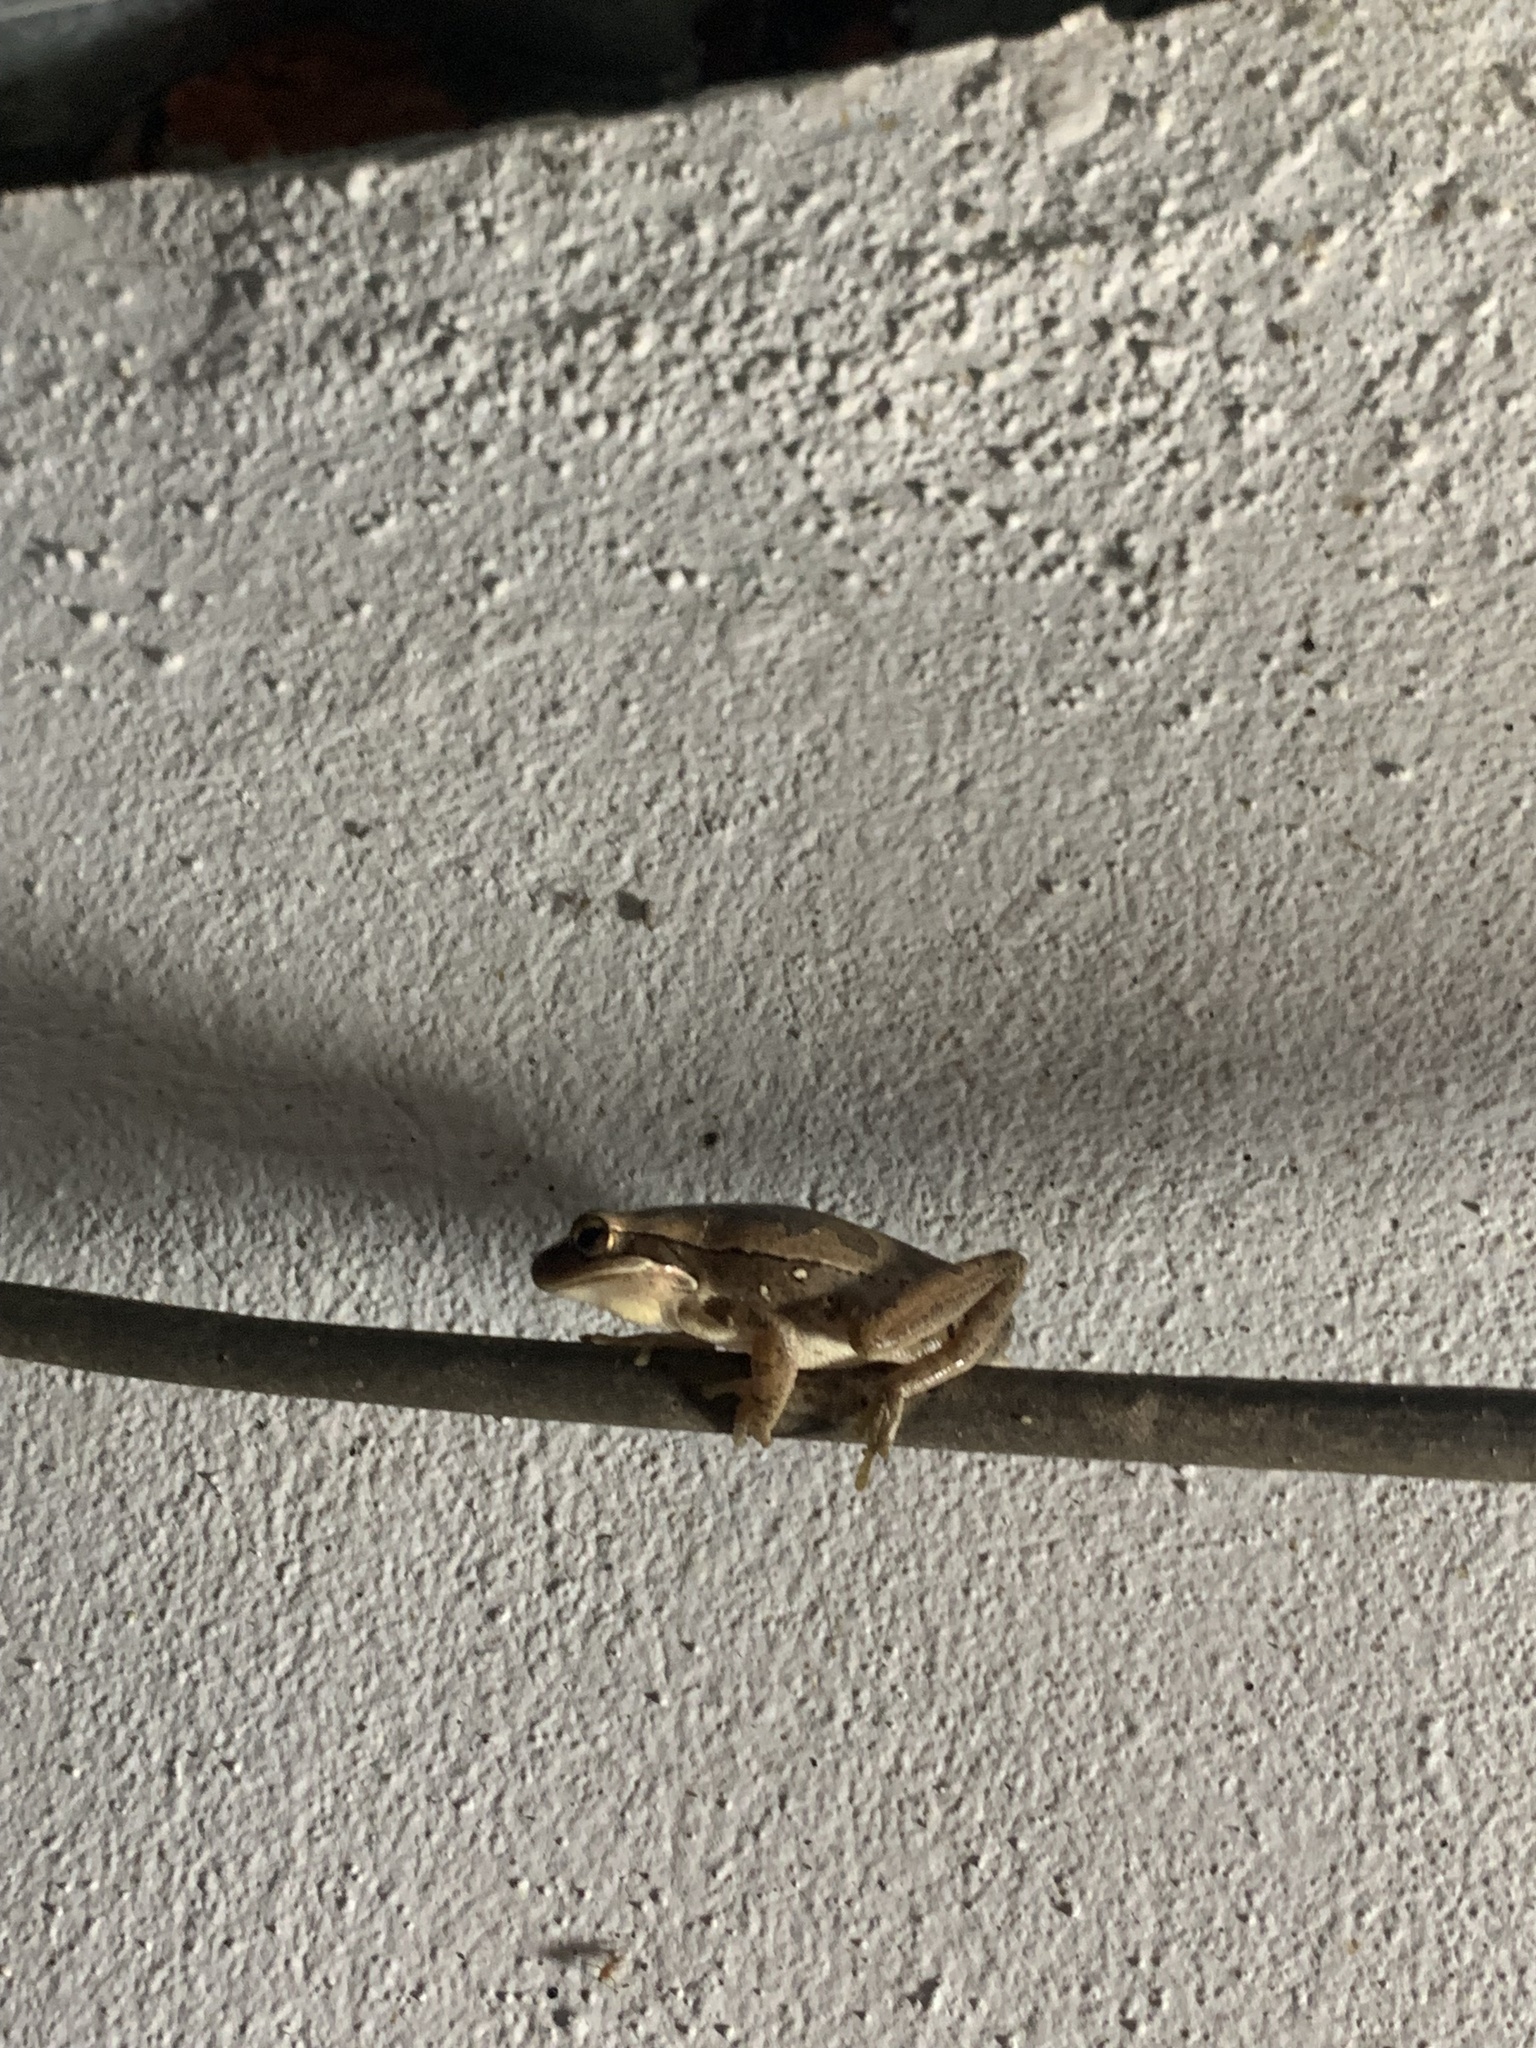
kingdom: Animalia
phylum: Chordata
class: Amphibia
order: Anura
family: Hylidae
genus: Boana
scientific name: Boana pulchella
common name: Montevideo treefrog
